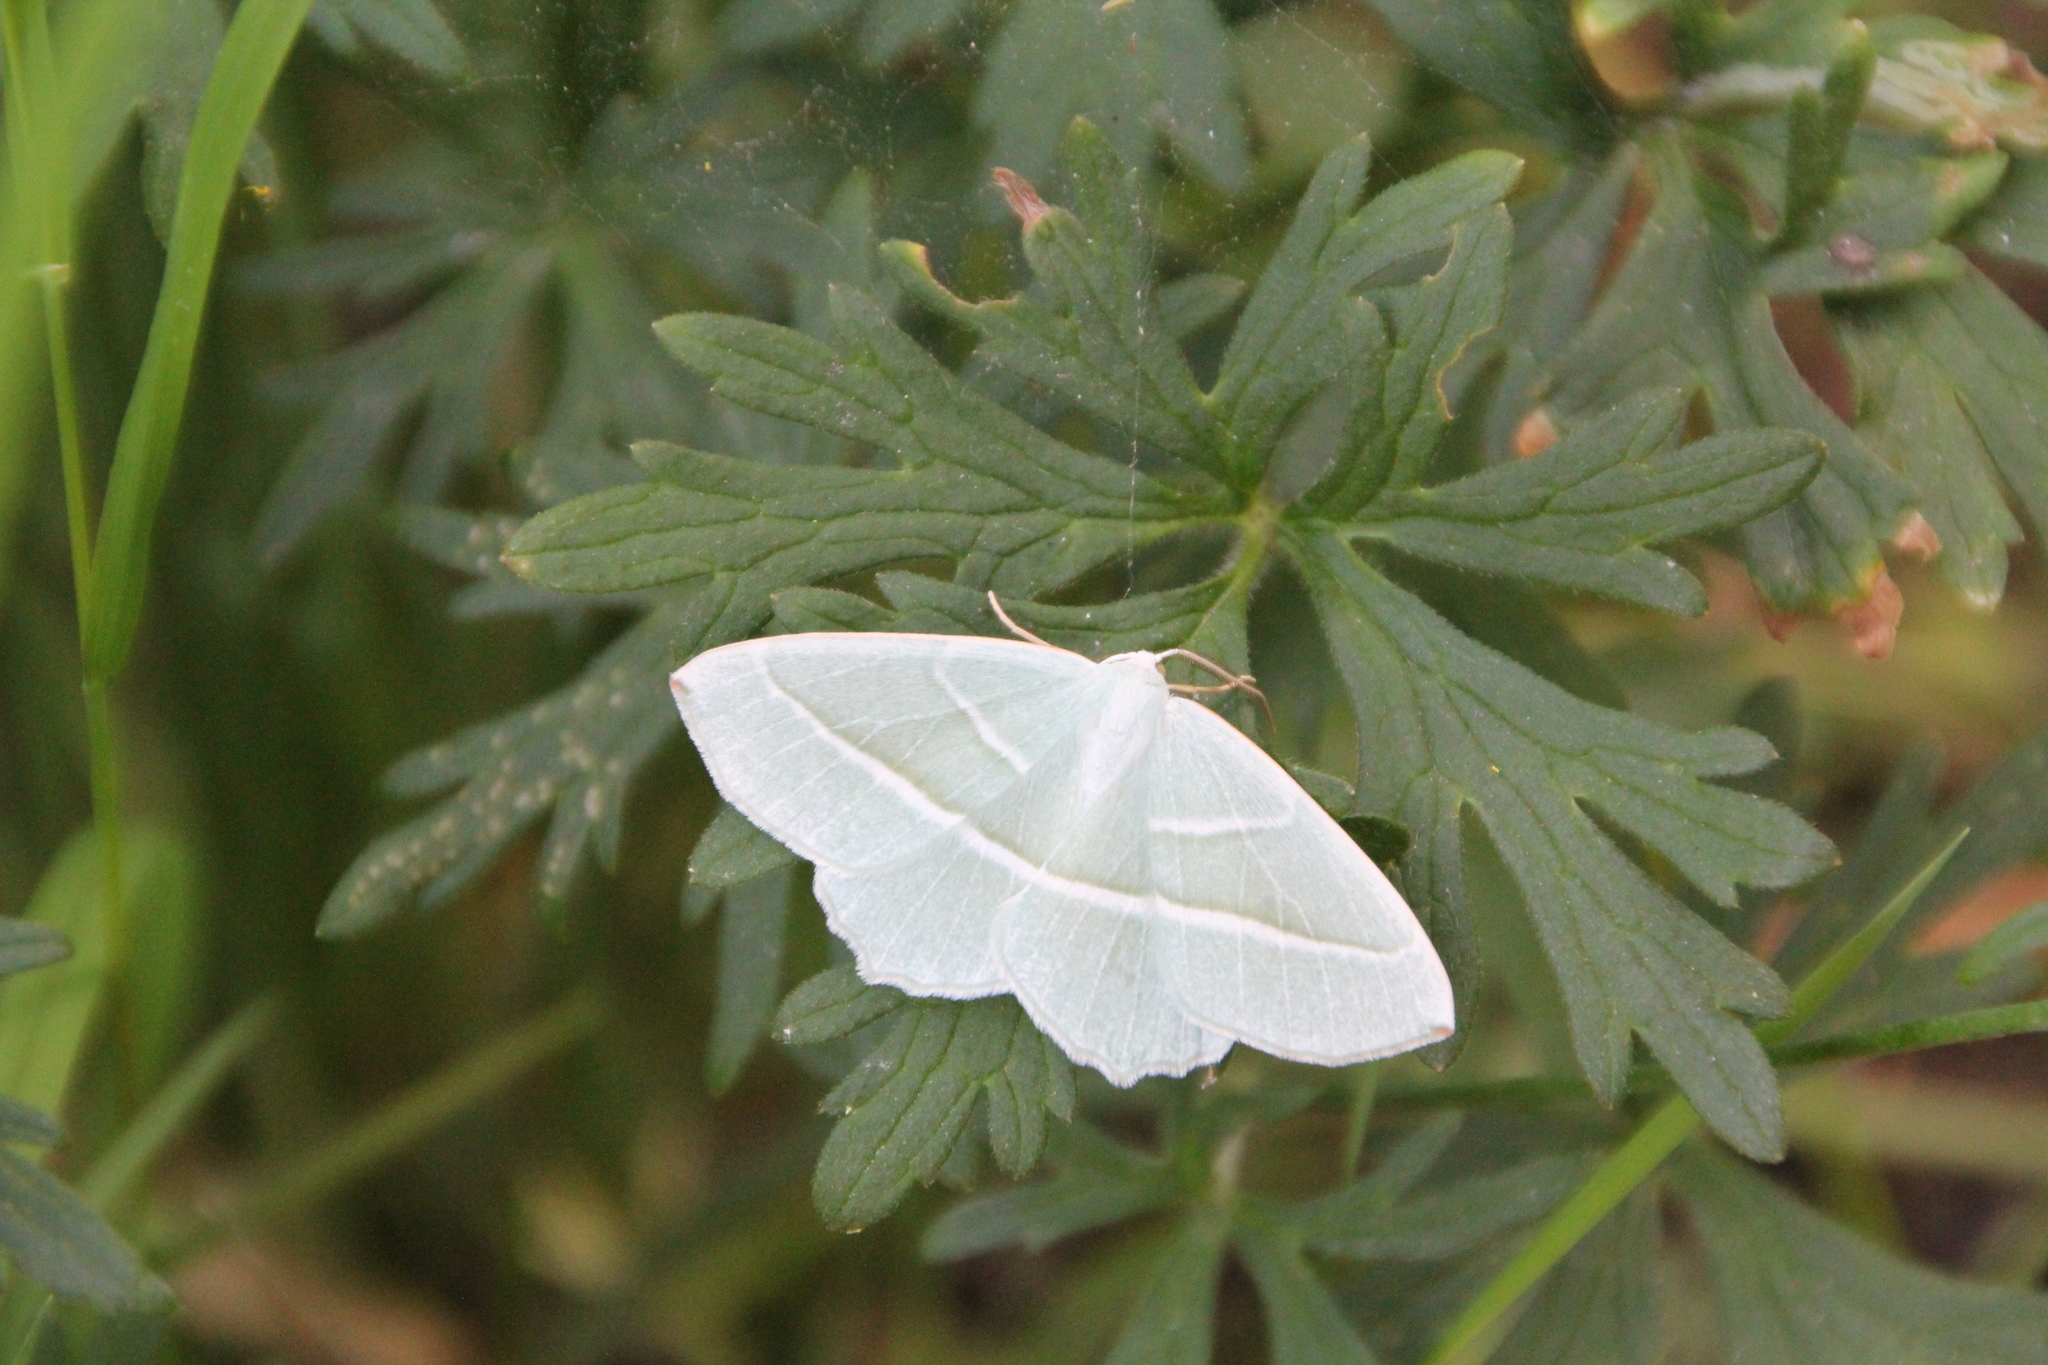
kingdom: Animalia
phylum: Arthropoda
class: Insecta
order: Lepidoptera
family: Geometridae
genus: Campaea
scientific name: Campaea margaritaria
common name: Light emerald
